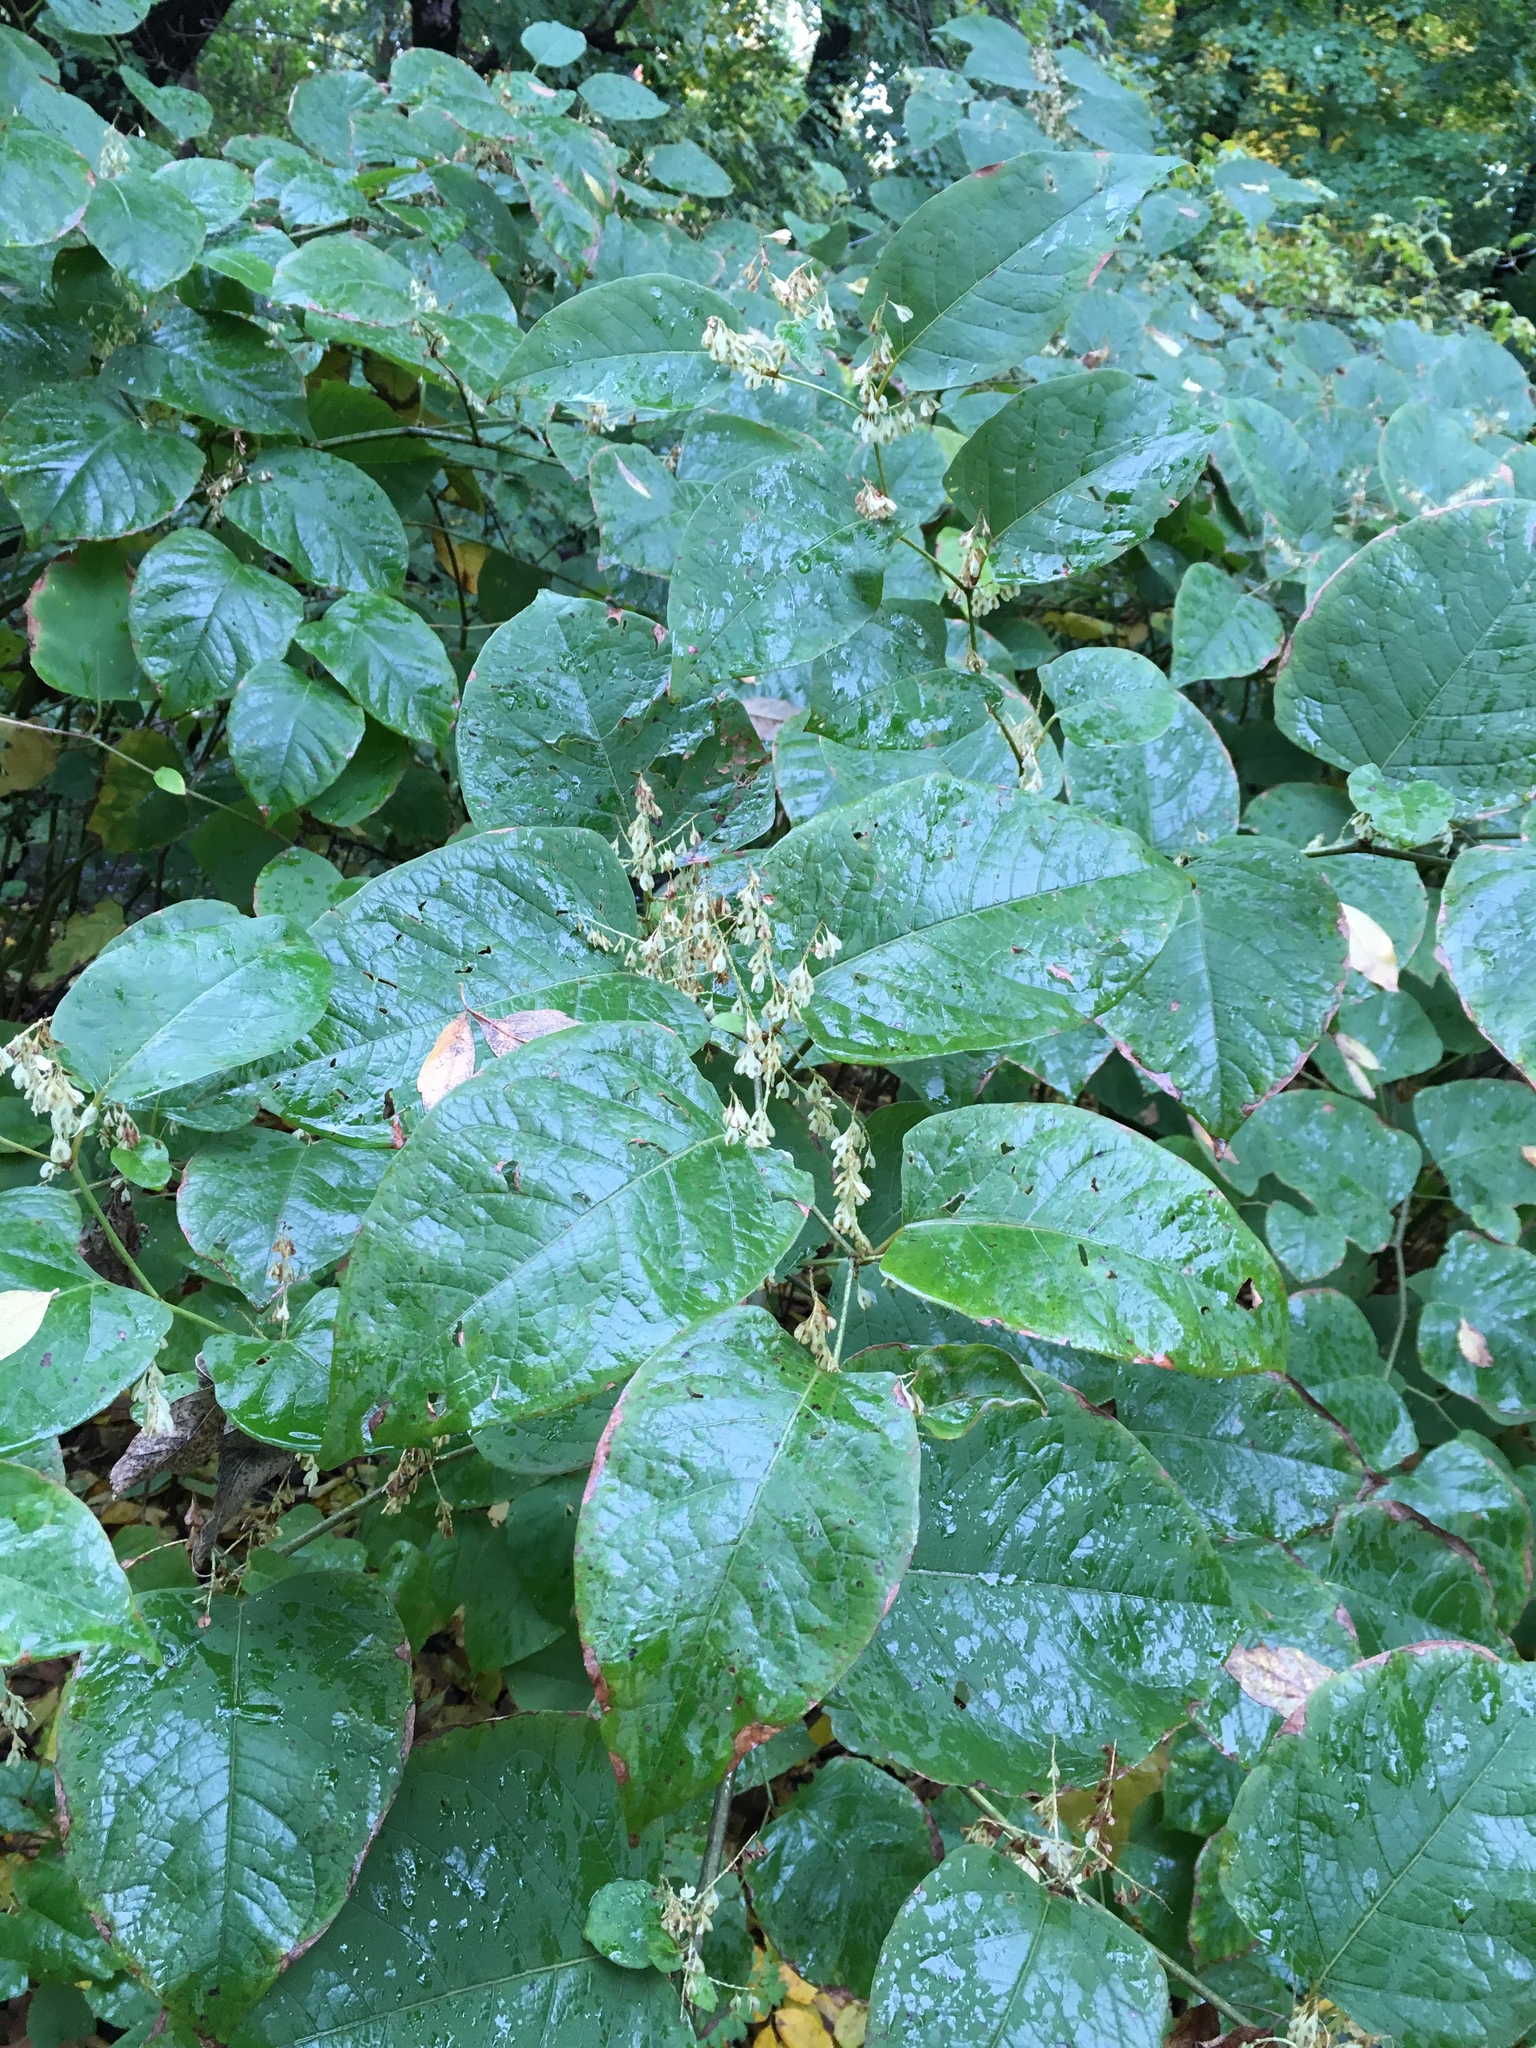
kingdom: Plantae
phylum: Tracheophyta
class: Magnoliopsida
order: Caryophyllales
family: Polygonaceae
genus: Reynoutria
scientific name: Reynoutria bohemica
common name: Bohemian knotweed
